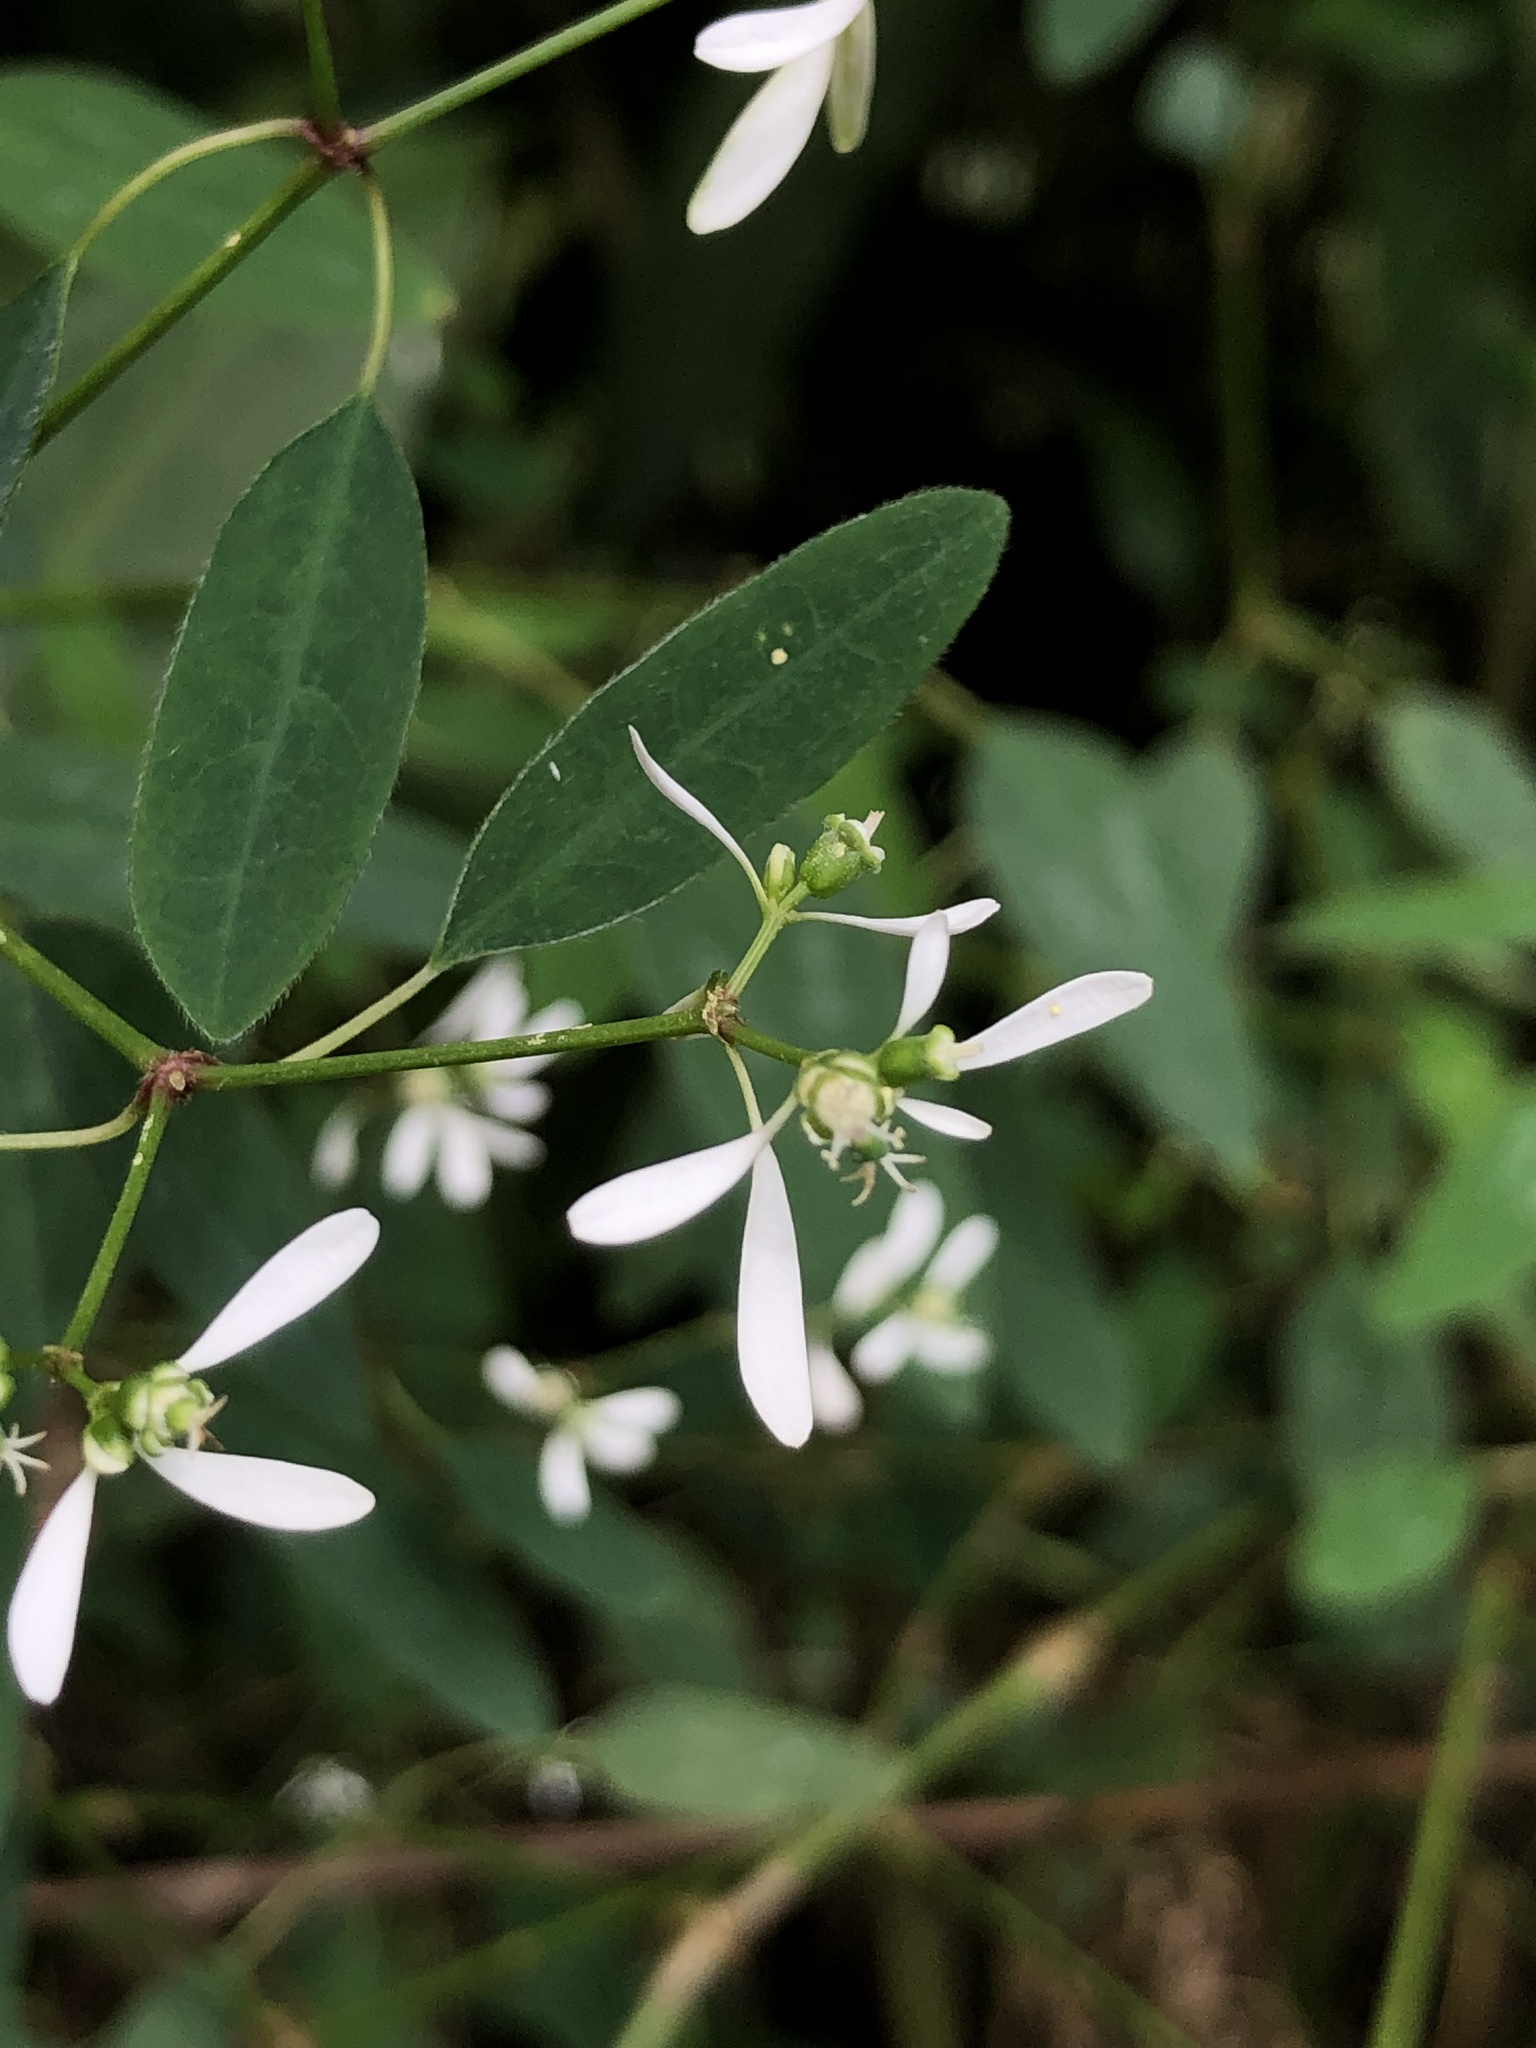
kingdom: Plantae
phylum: Tracheophyta
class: Magnoliopsida
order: Malpighiales
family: Euphorbiaceae
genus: Euphorbia
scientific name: Euphorbia graminea
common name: Grassleaf spurge
